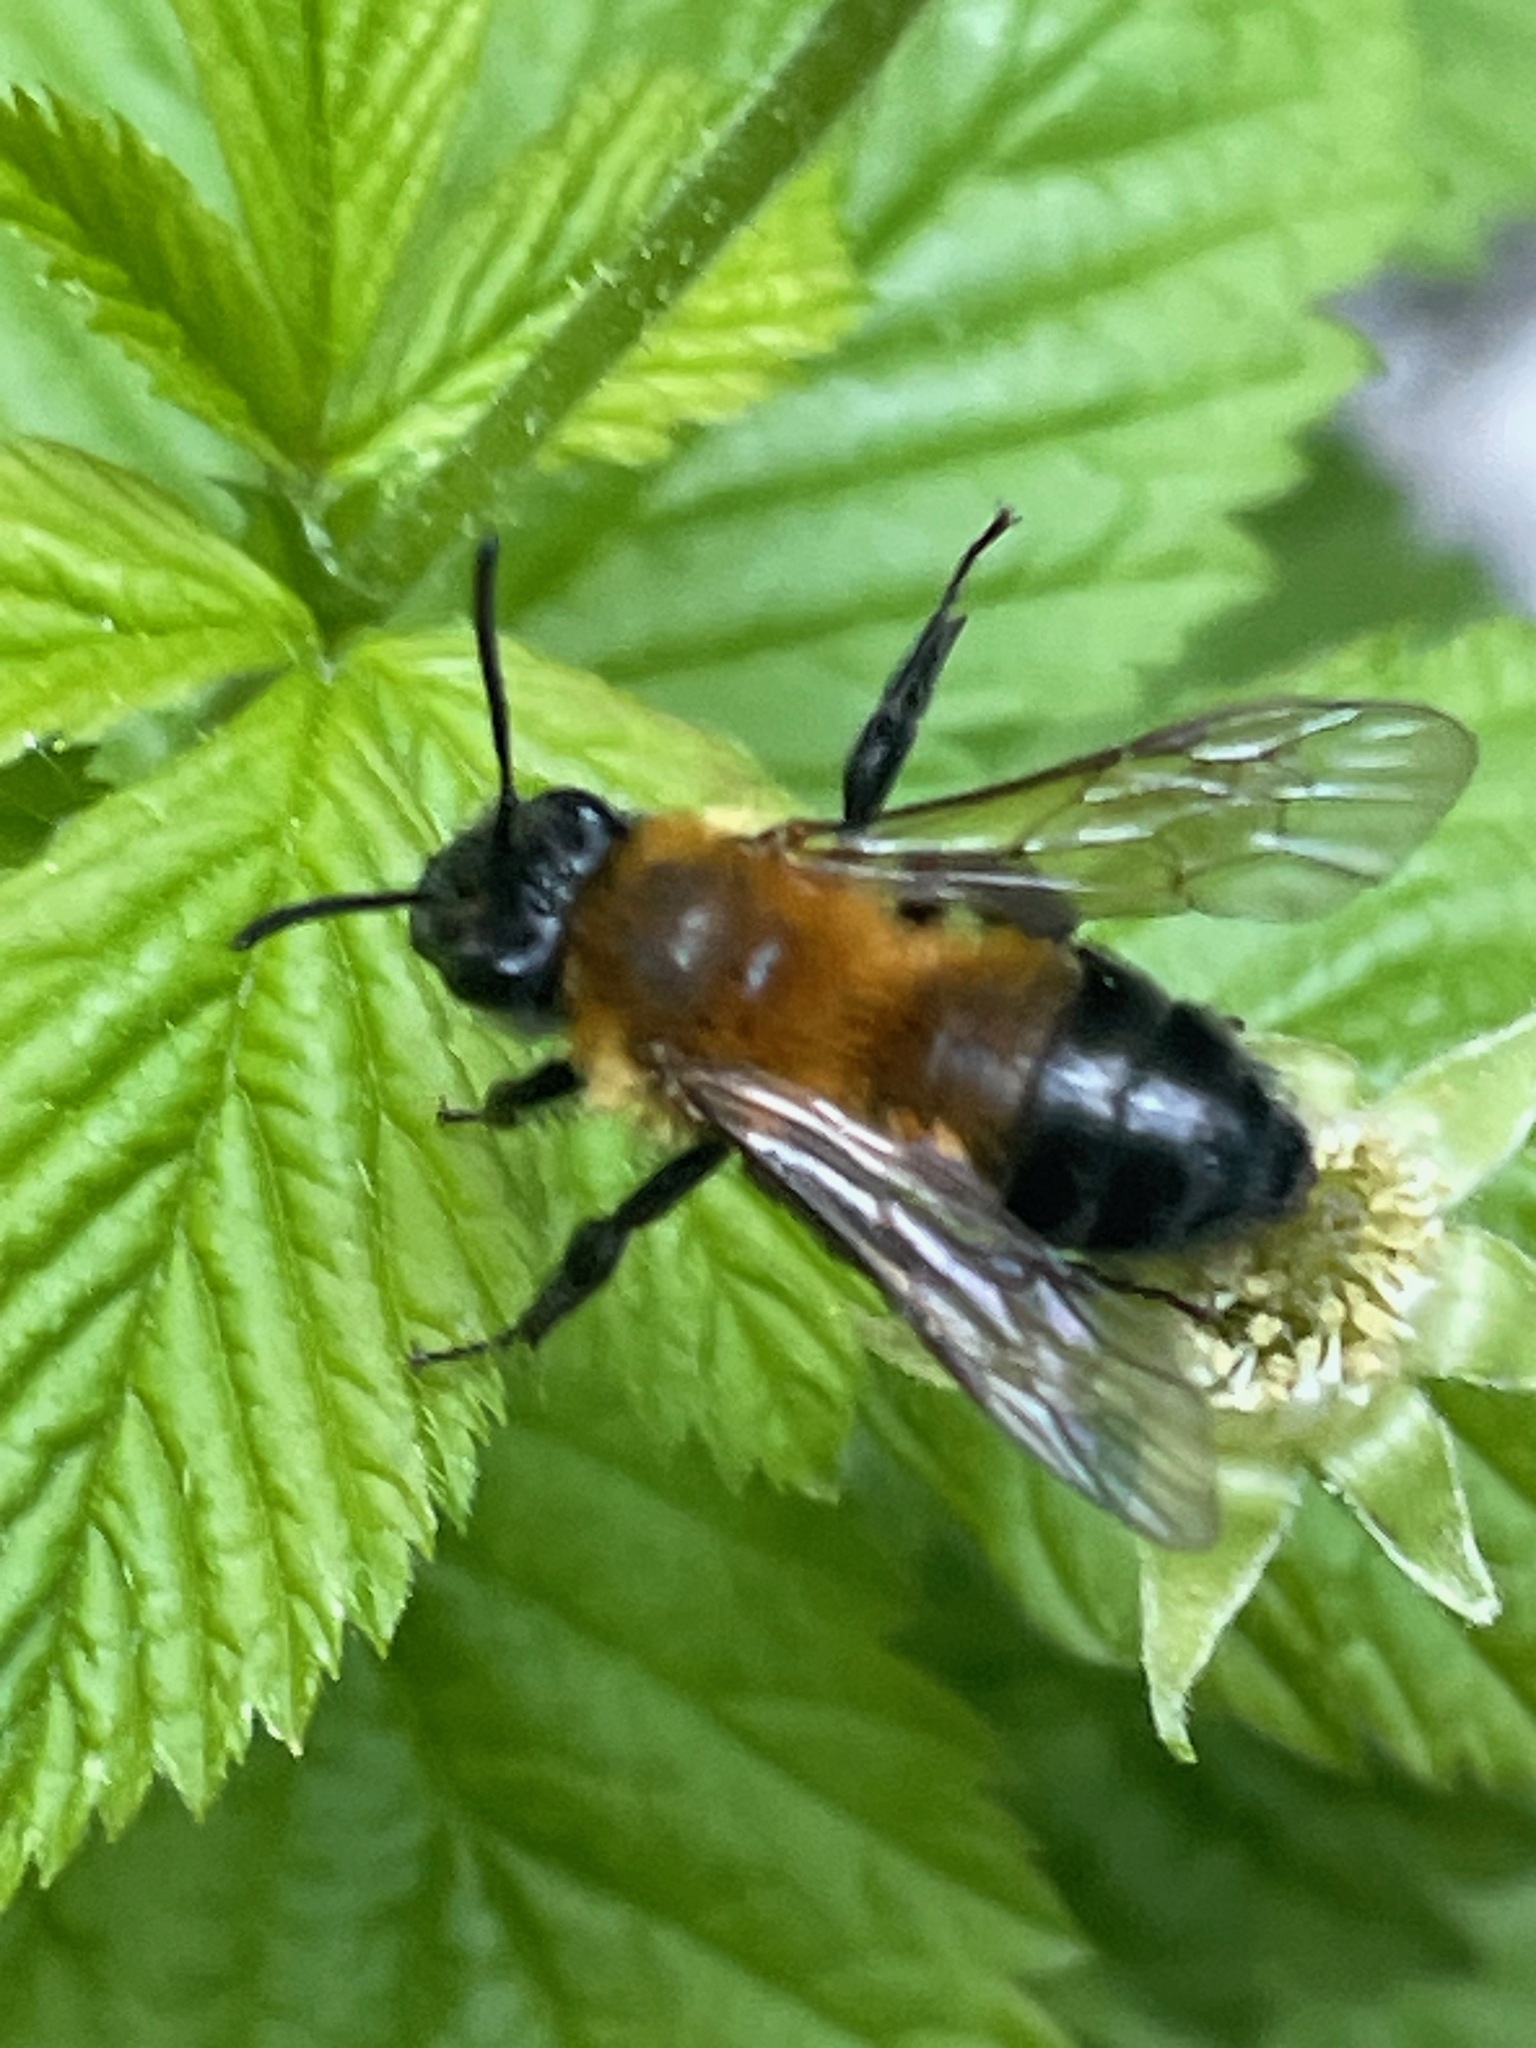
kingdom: Animalia
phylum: Arthropoda
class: Insecta
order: Hymenoptera
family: Andrenidae
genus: Andrena
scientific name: Andrena milwaukeensis
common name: Milwaukee mining bee
